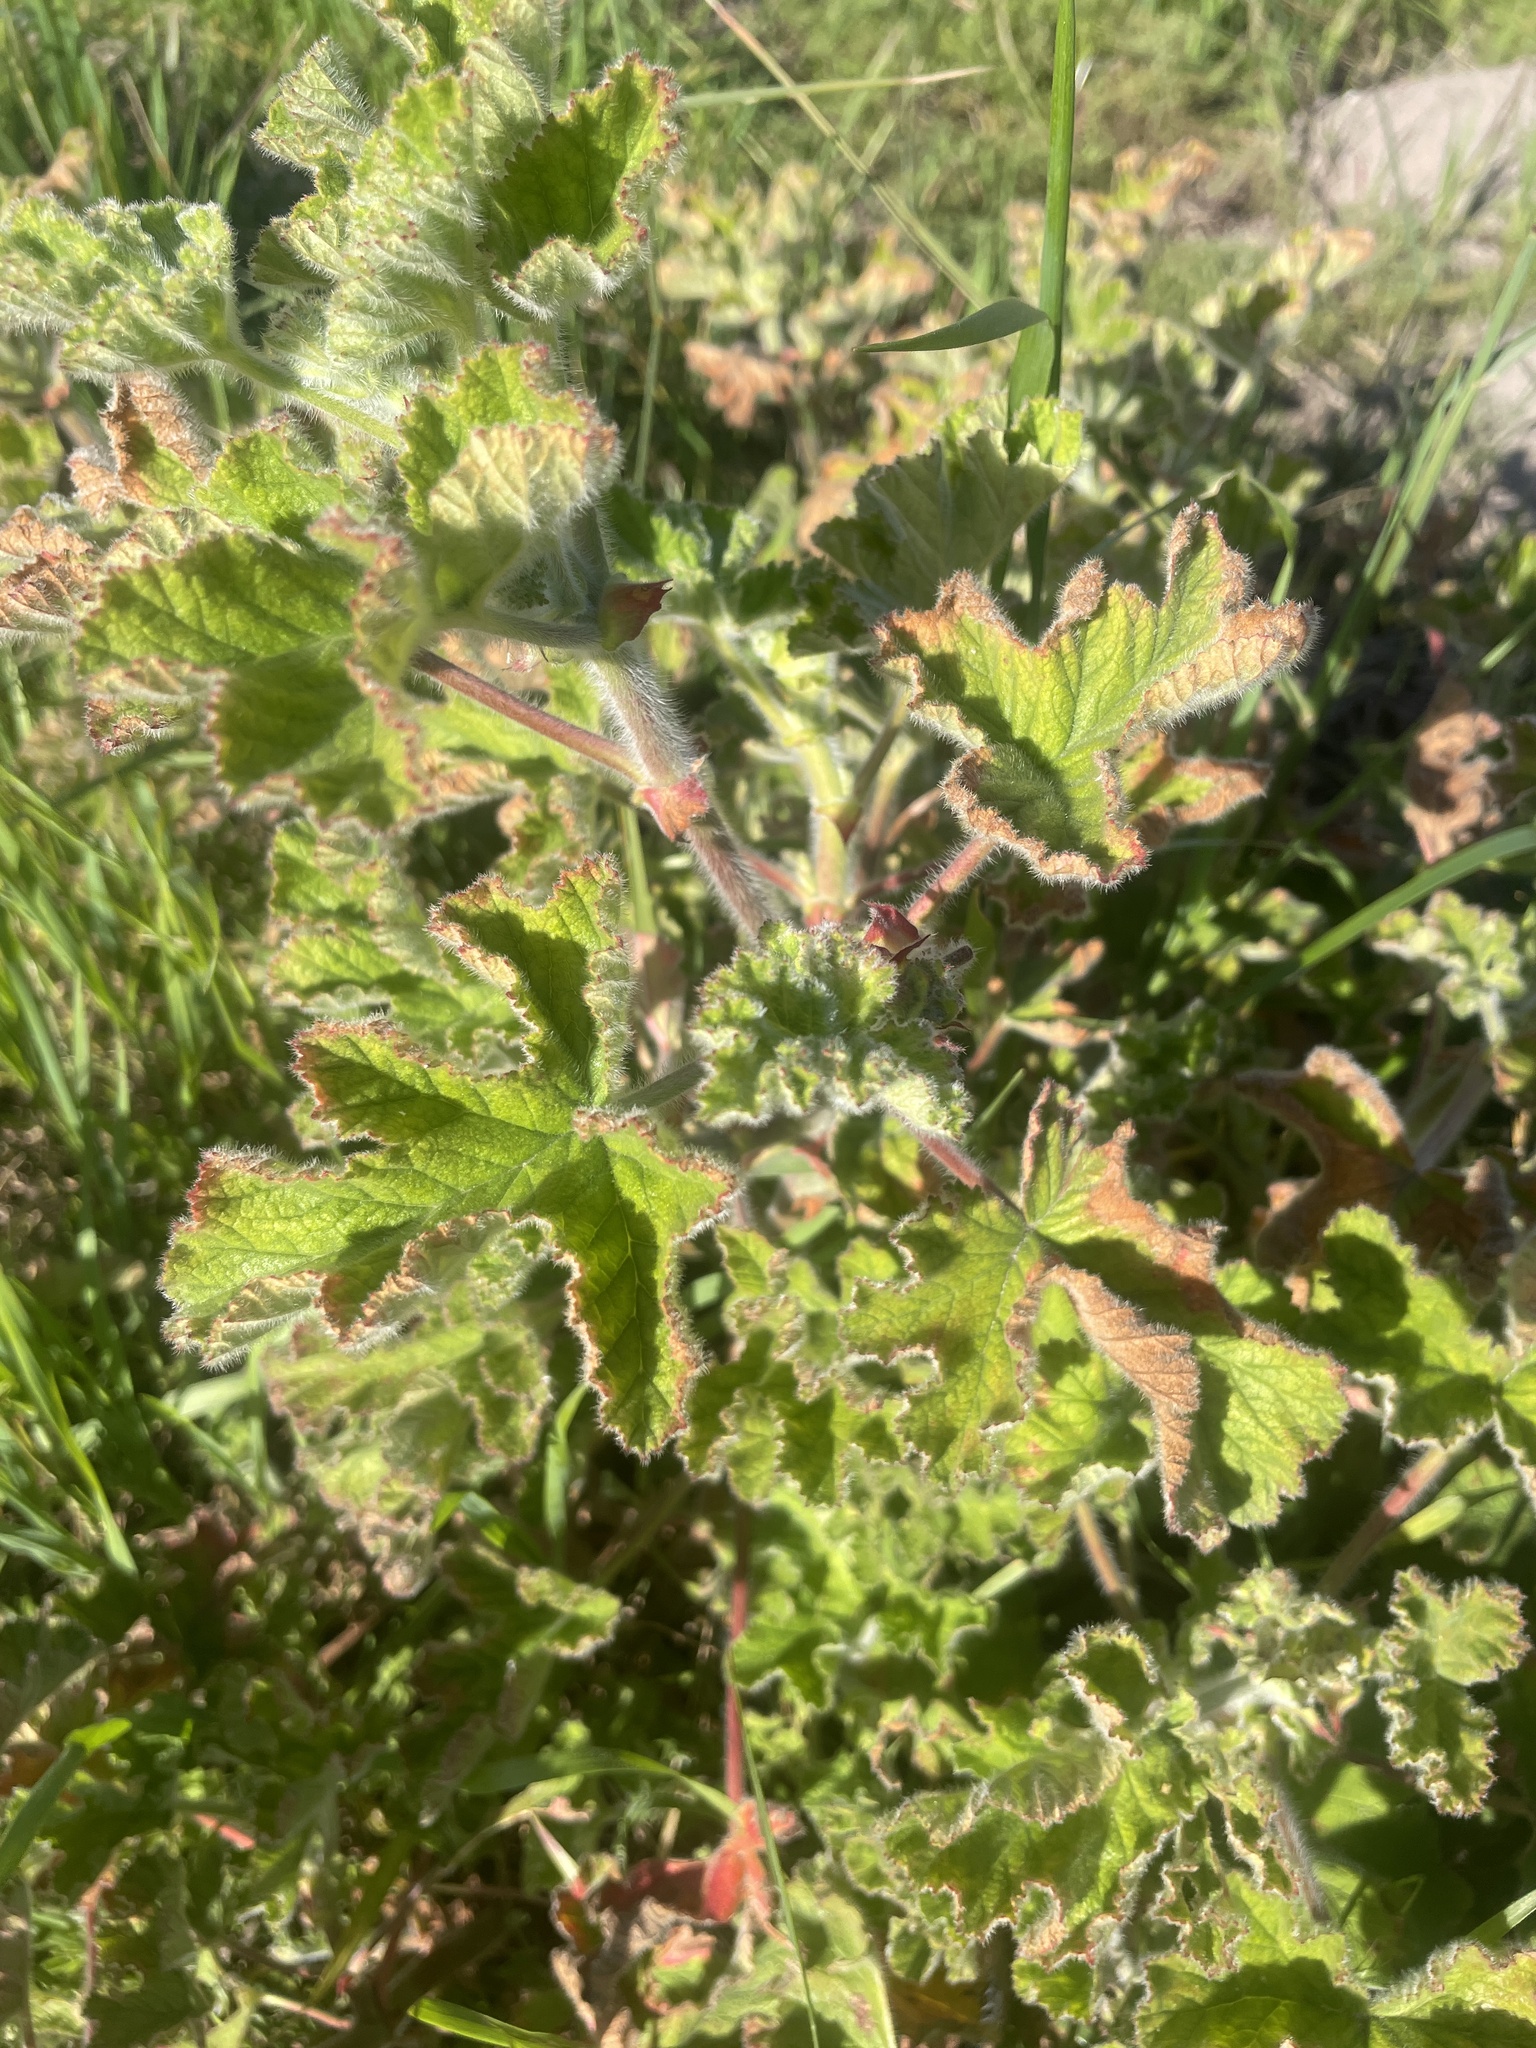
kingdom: Plantae
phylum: Tracheophyta
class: Magnoliopsida
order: Geraniales
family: Geraniaceae
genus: Pelargonium
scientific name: Pelargonium capitatum
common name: Rose scented geranium
